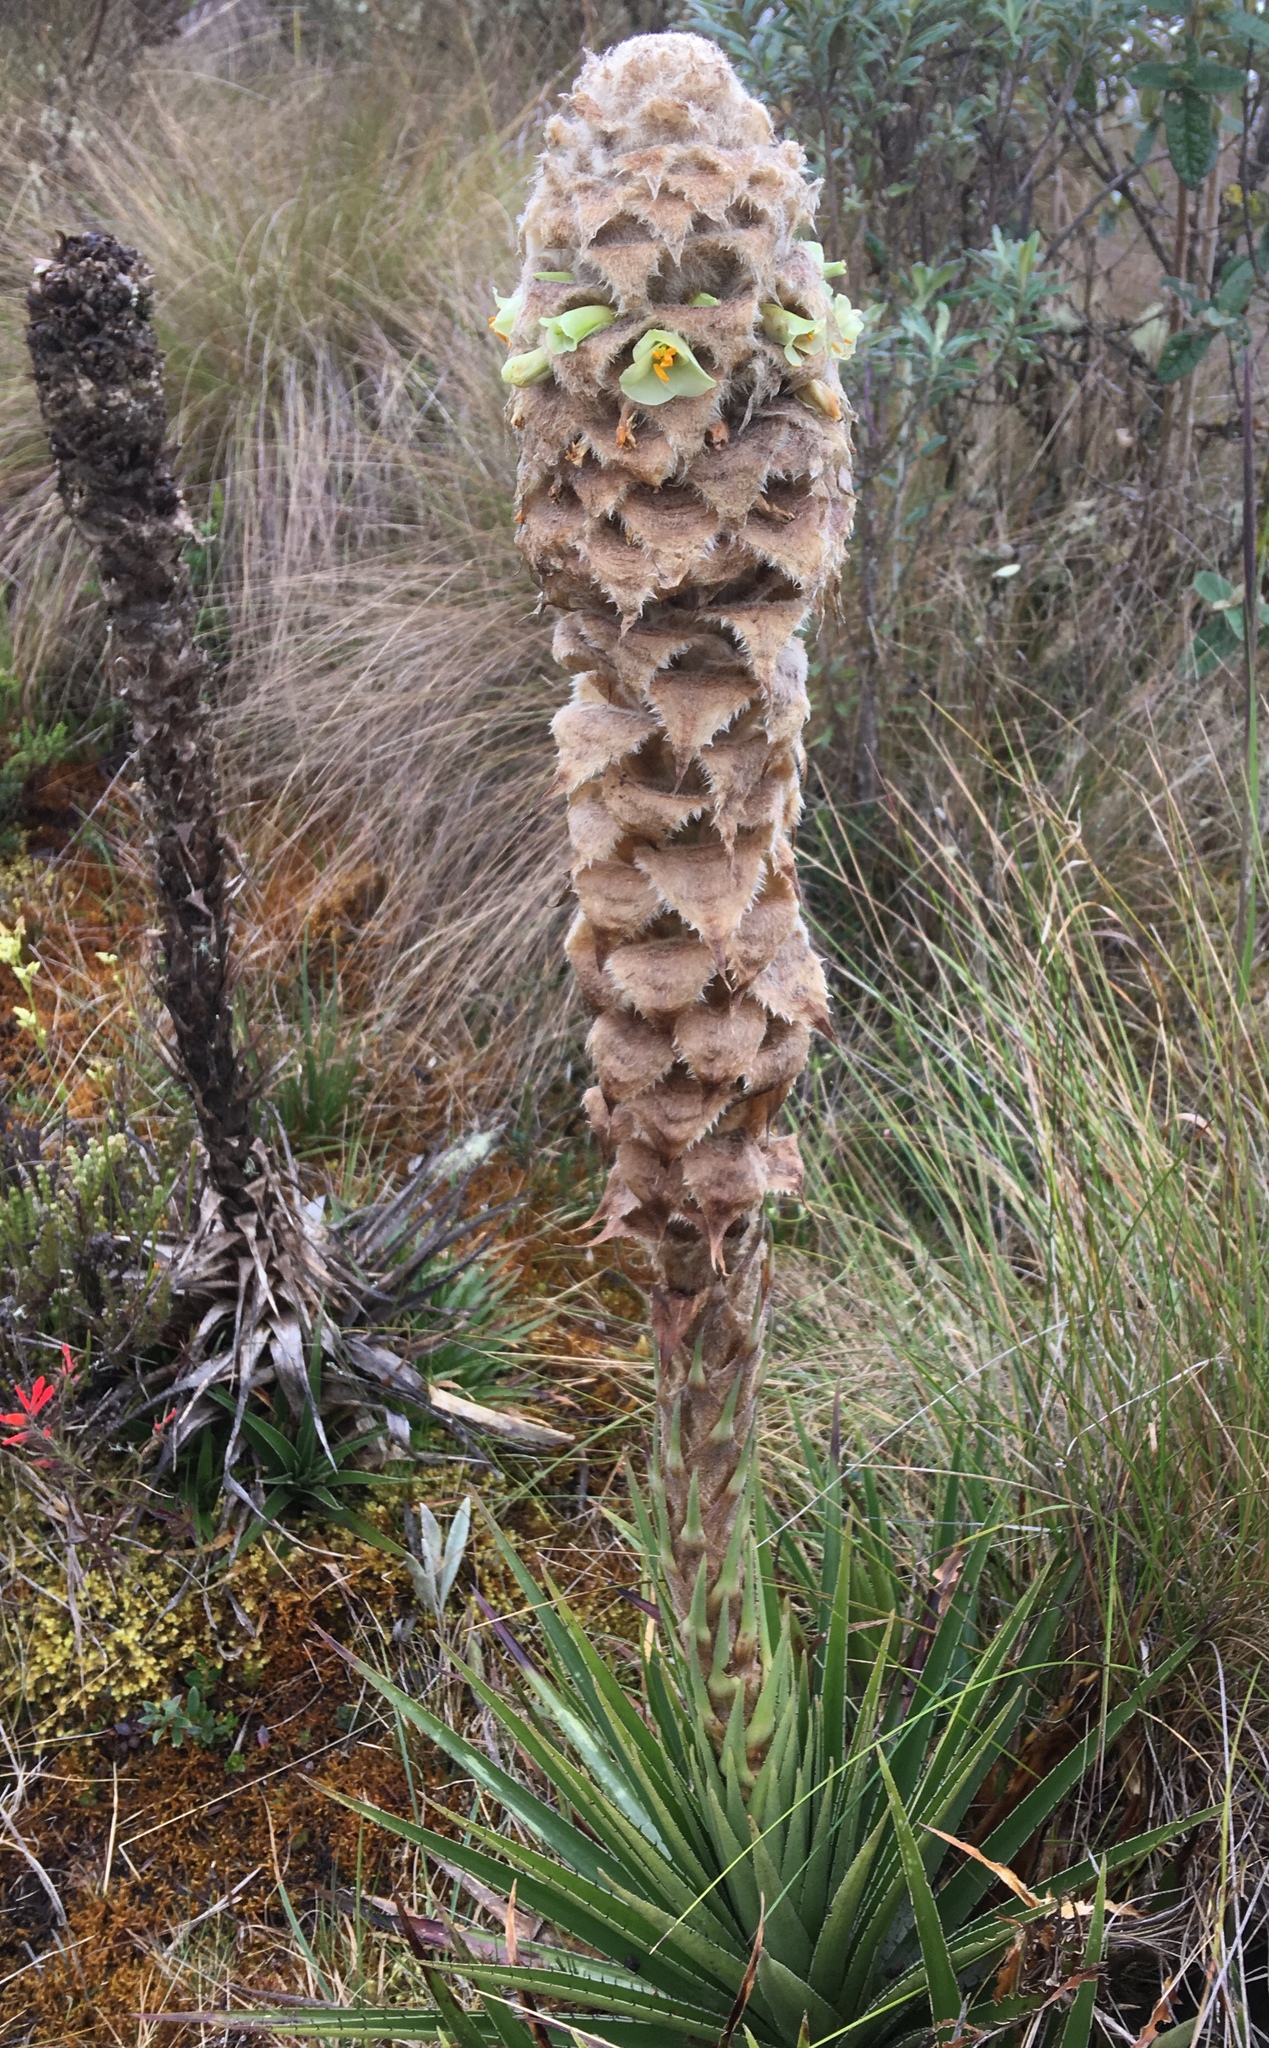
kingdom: Plantae
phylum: Tracheophyta
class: Liliopsida
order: Poales
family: Bromeliaceae
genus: Puya
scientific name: Puya trianae
